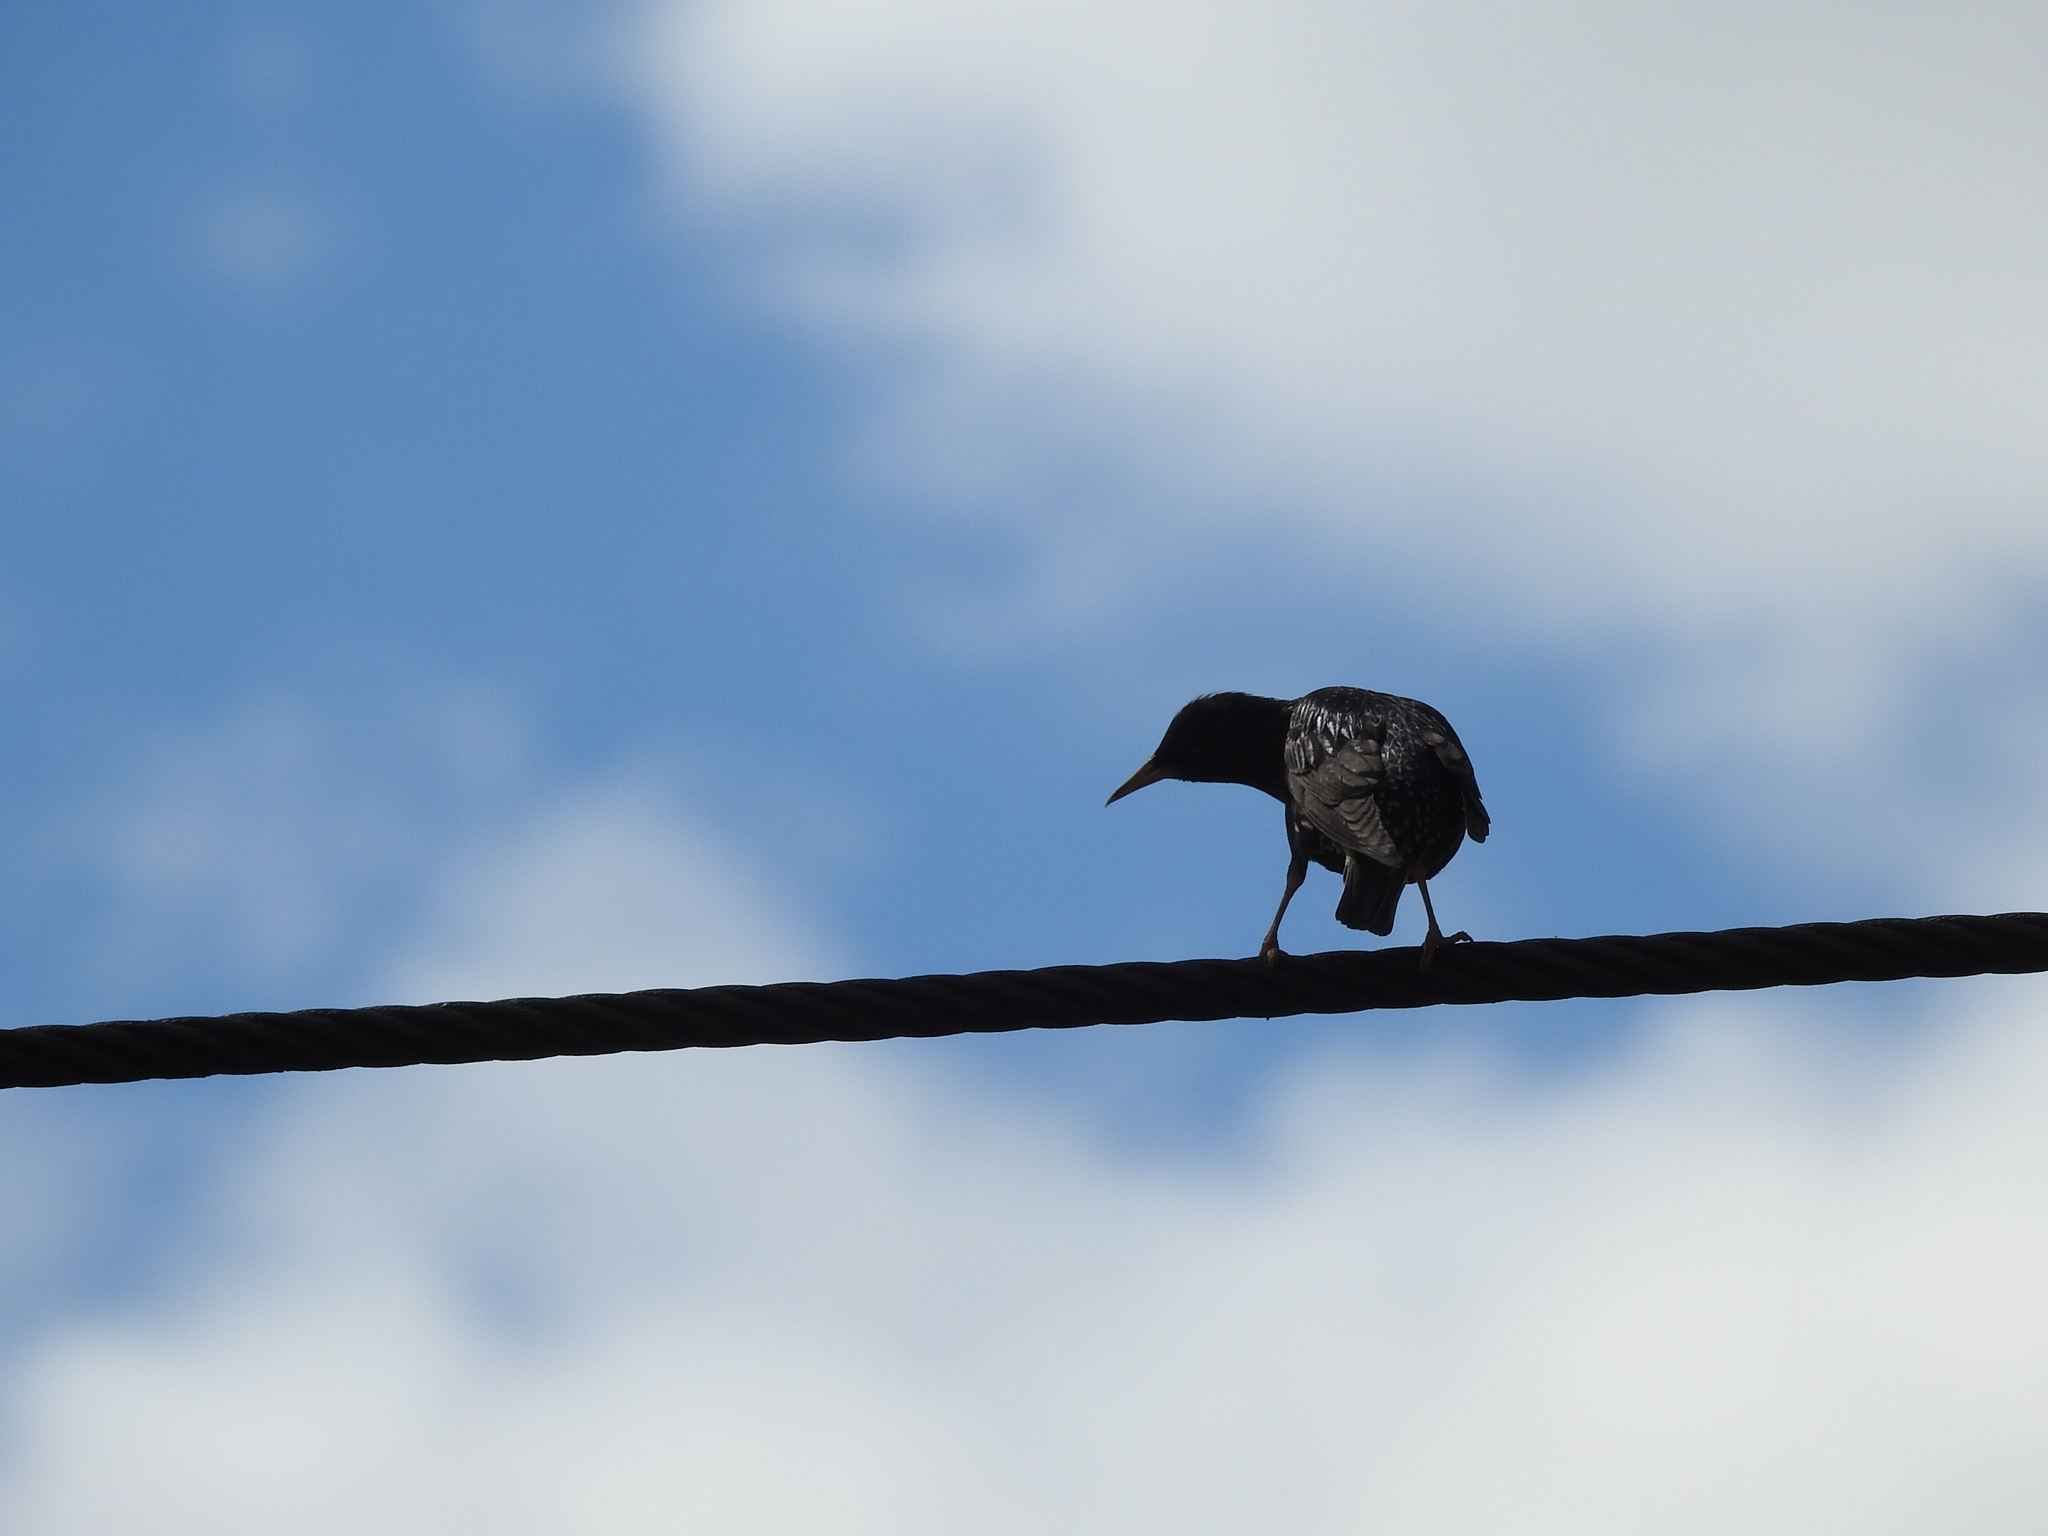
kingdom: Animalia
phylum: Chordata
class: Aves
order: Passeriformes
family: Sturnidae
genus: Sturnus
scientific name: Sturnus vulgaris
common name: Common starling
